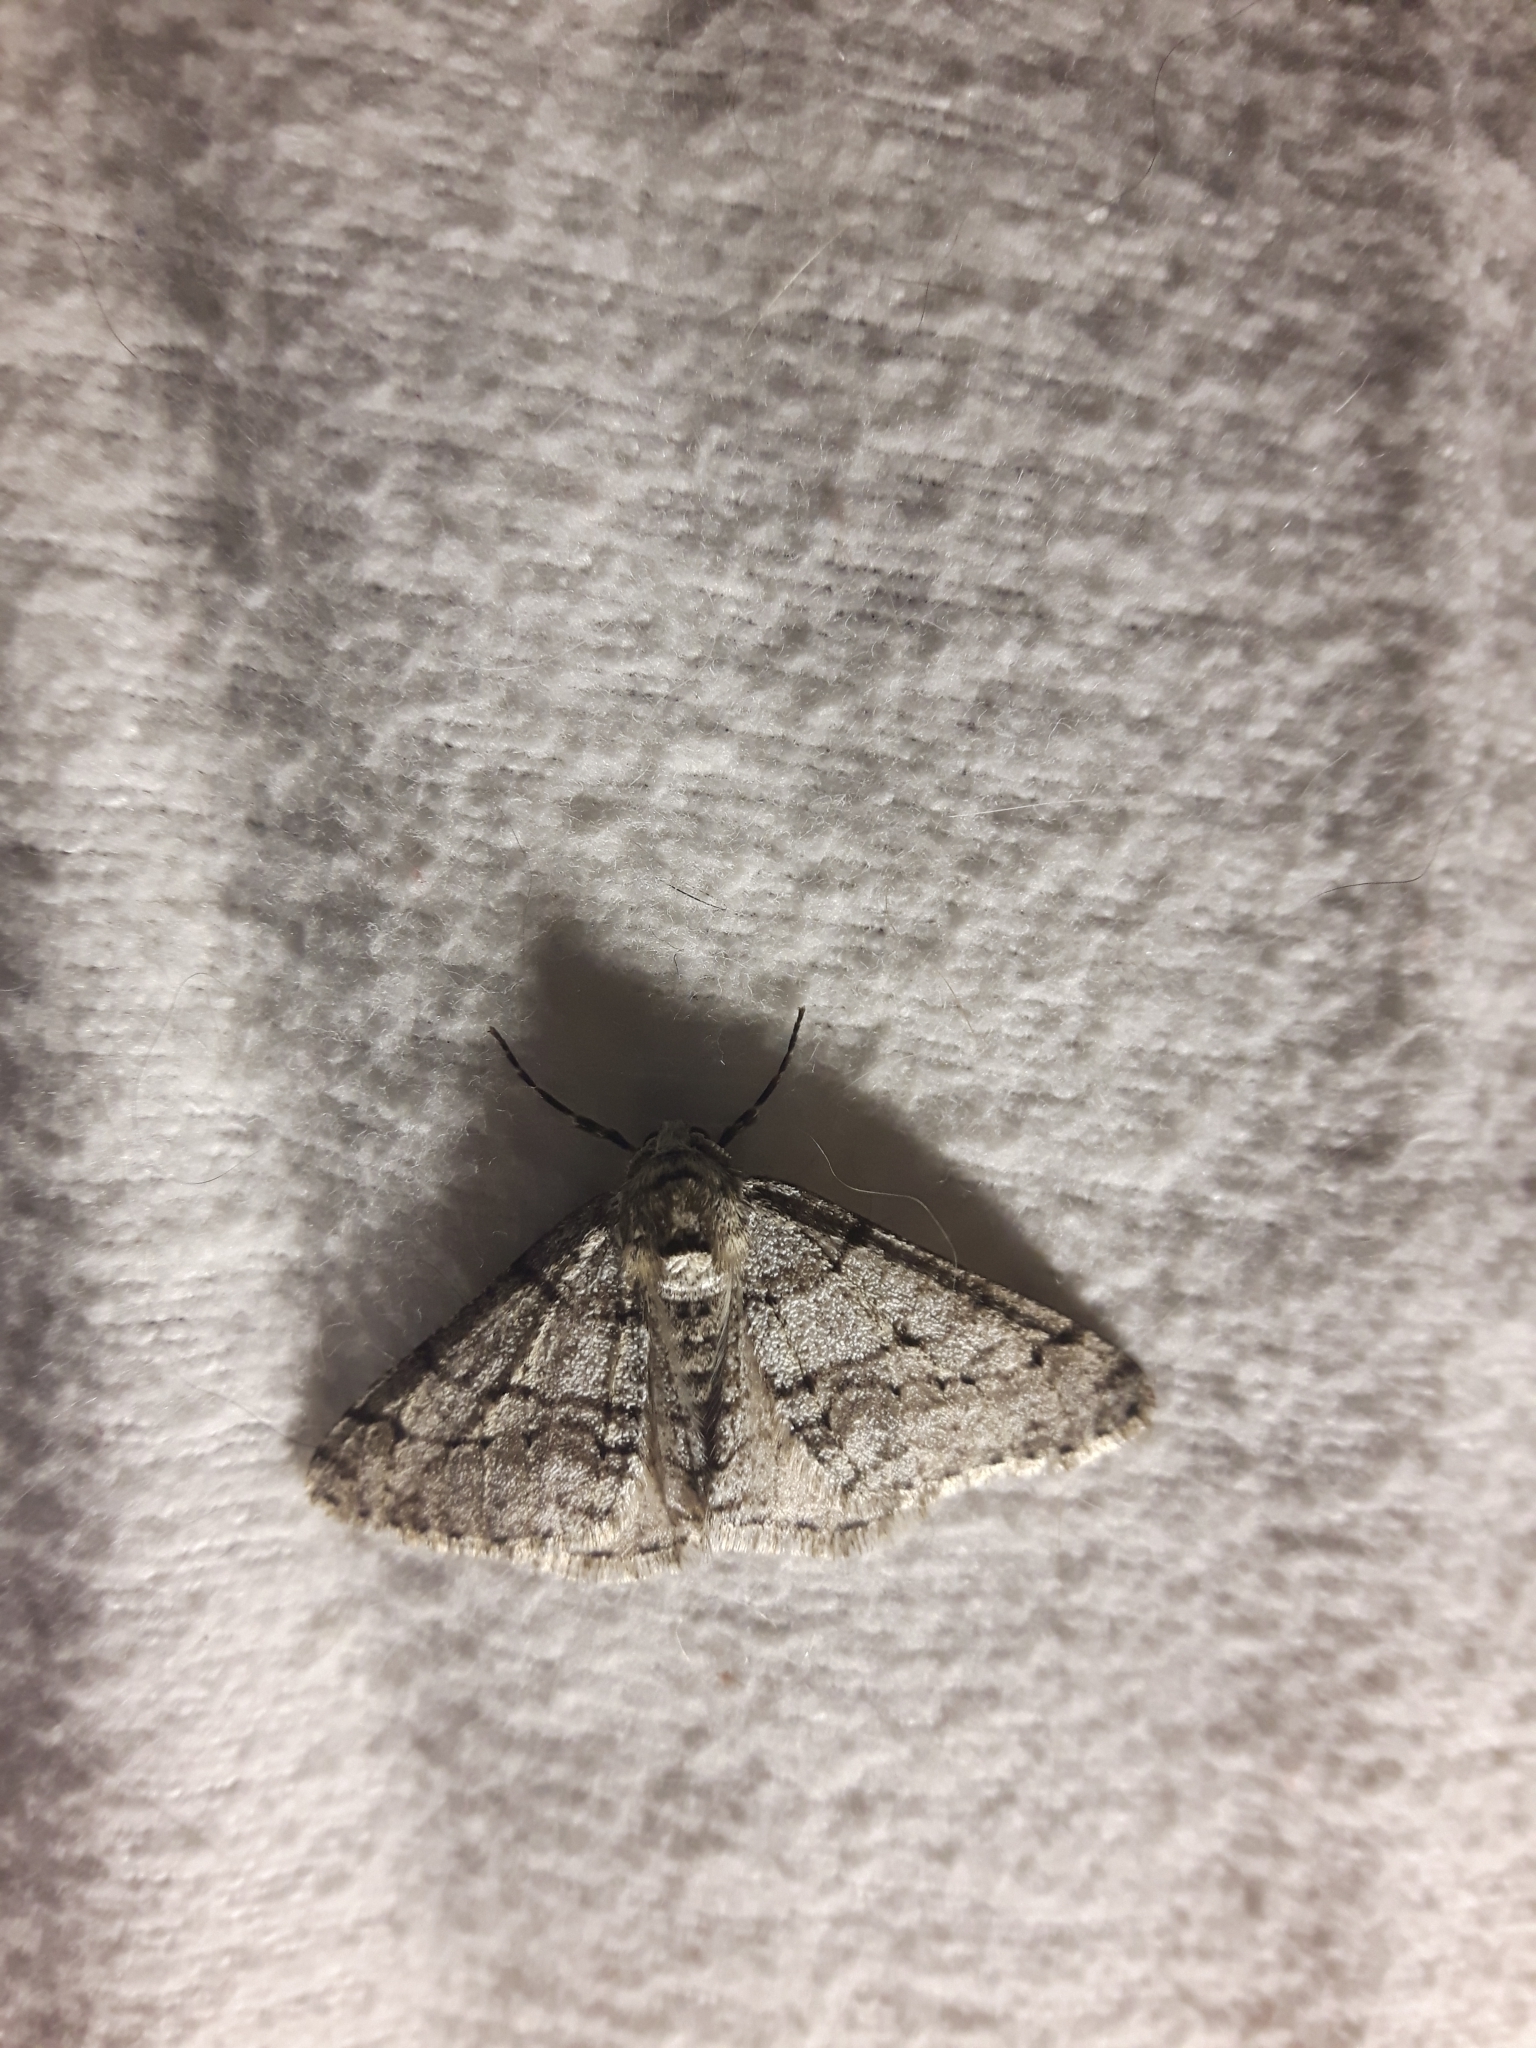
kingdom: Animalia
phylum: Arthropoda
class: Insecta
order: Lepidoptera
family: Geometridae
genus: Phigalia
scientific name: Phigalia titea
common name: Spiny looper
